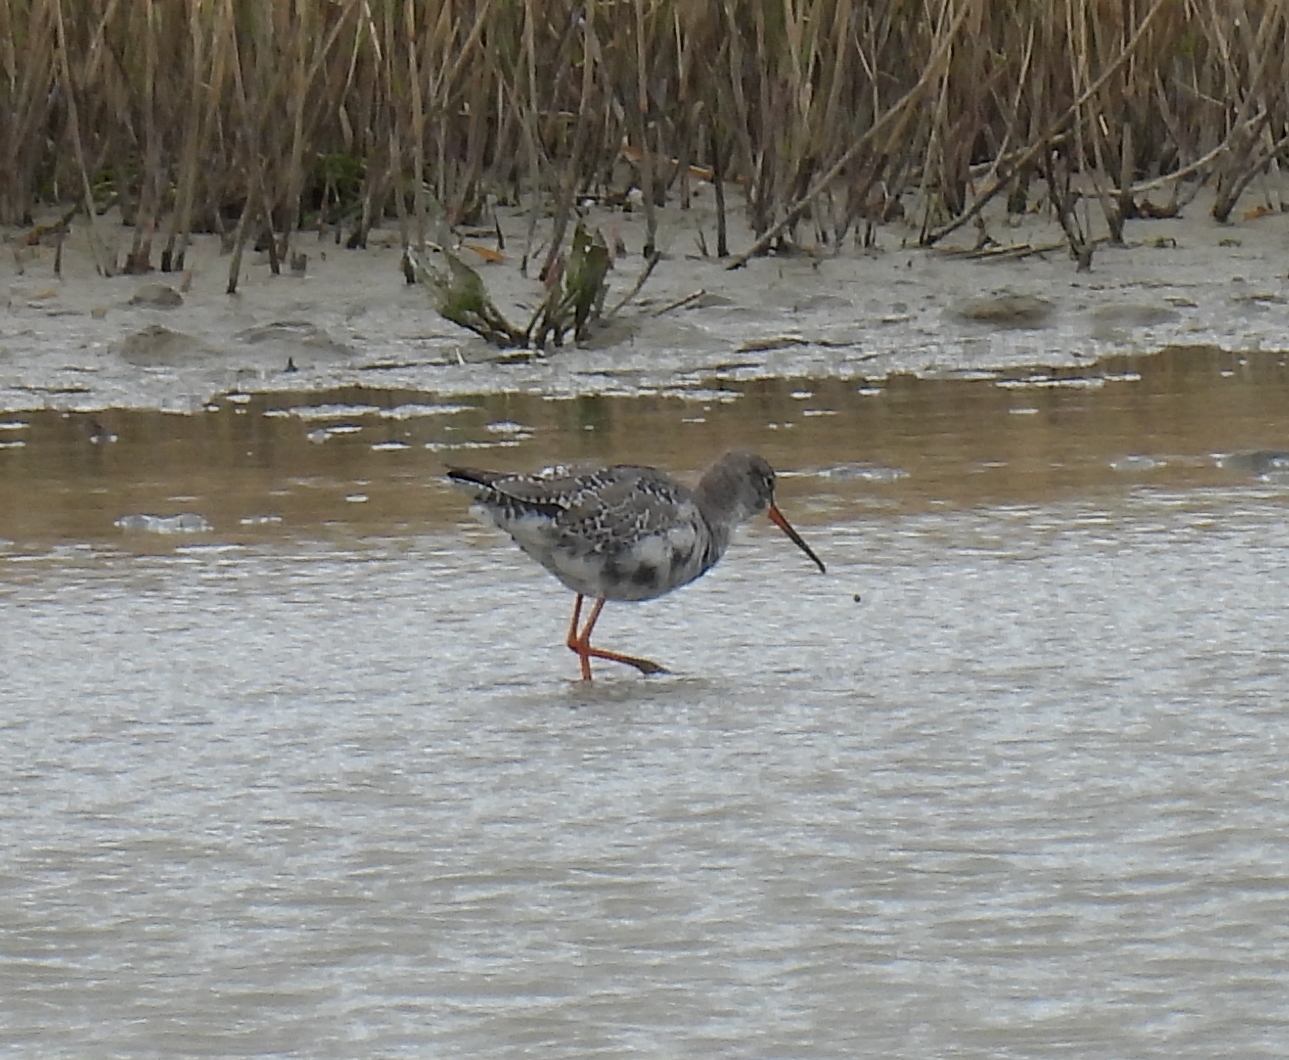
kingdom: Animalia
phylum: Chordata
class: Aves
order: Charadriiformes
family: Scolopacidae
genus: Tringa
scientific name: Tringa erythropus
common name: Spotted redshank
